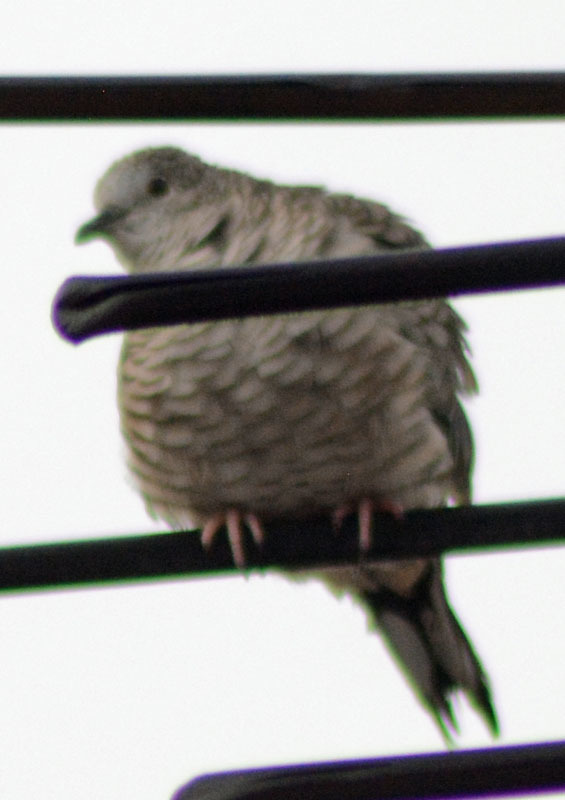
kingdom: Animalia
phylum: Chordata
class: Aves
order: Columbiformes
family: Columbidae
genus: Columbina
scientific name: Columbina inca
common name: Inca dove
